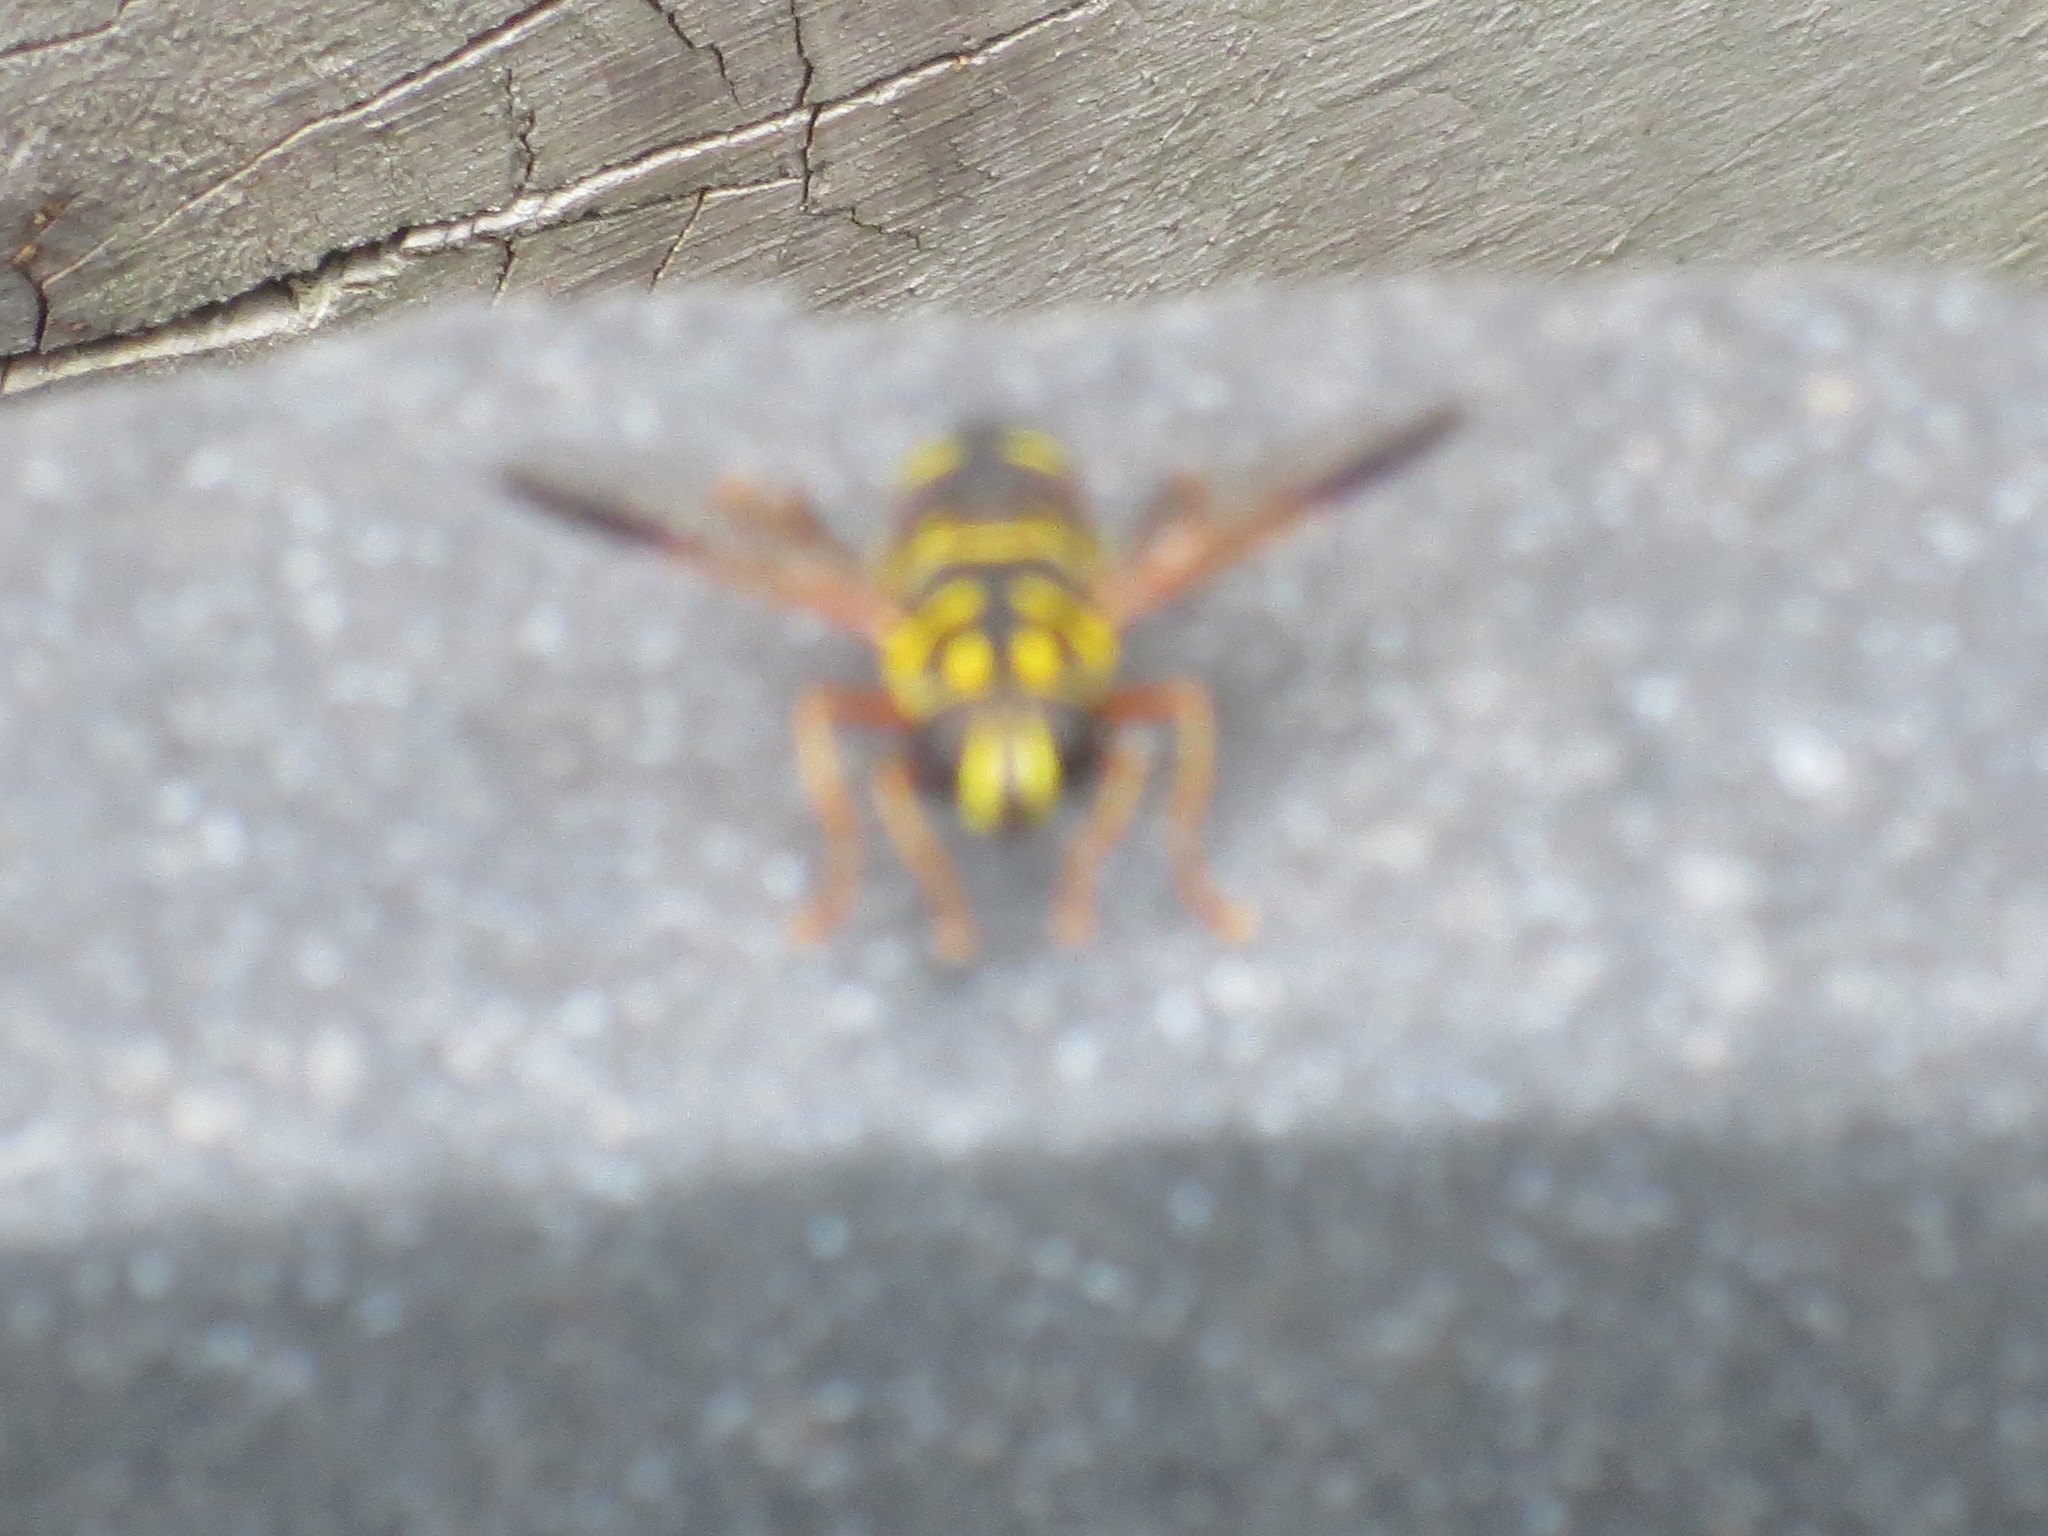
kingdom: Animalia
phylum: Arthropoda
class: Insecta
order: Diptera
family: Syrphidae
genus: Meromacrus
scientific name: Meromacrus acutus
